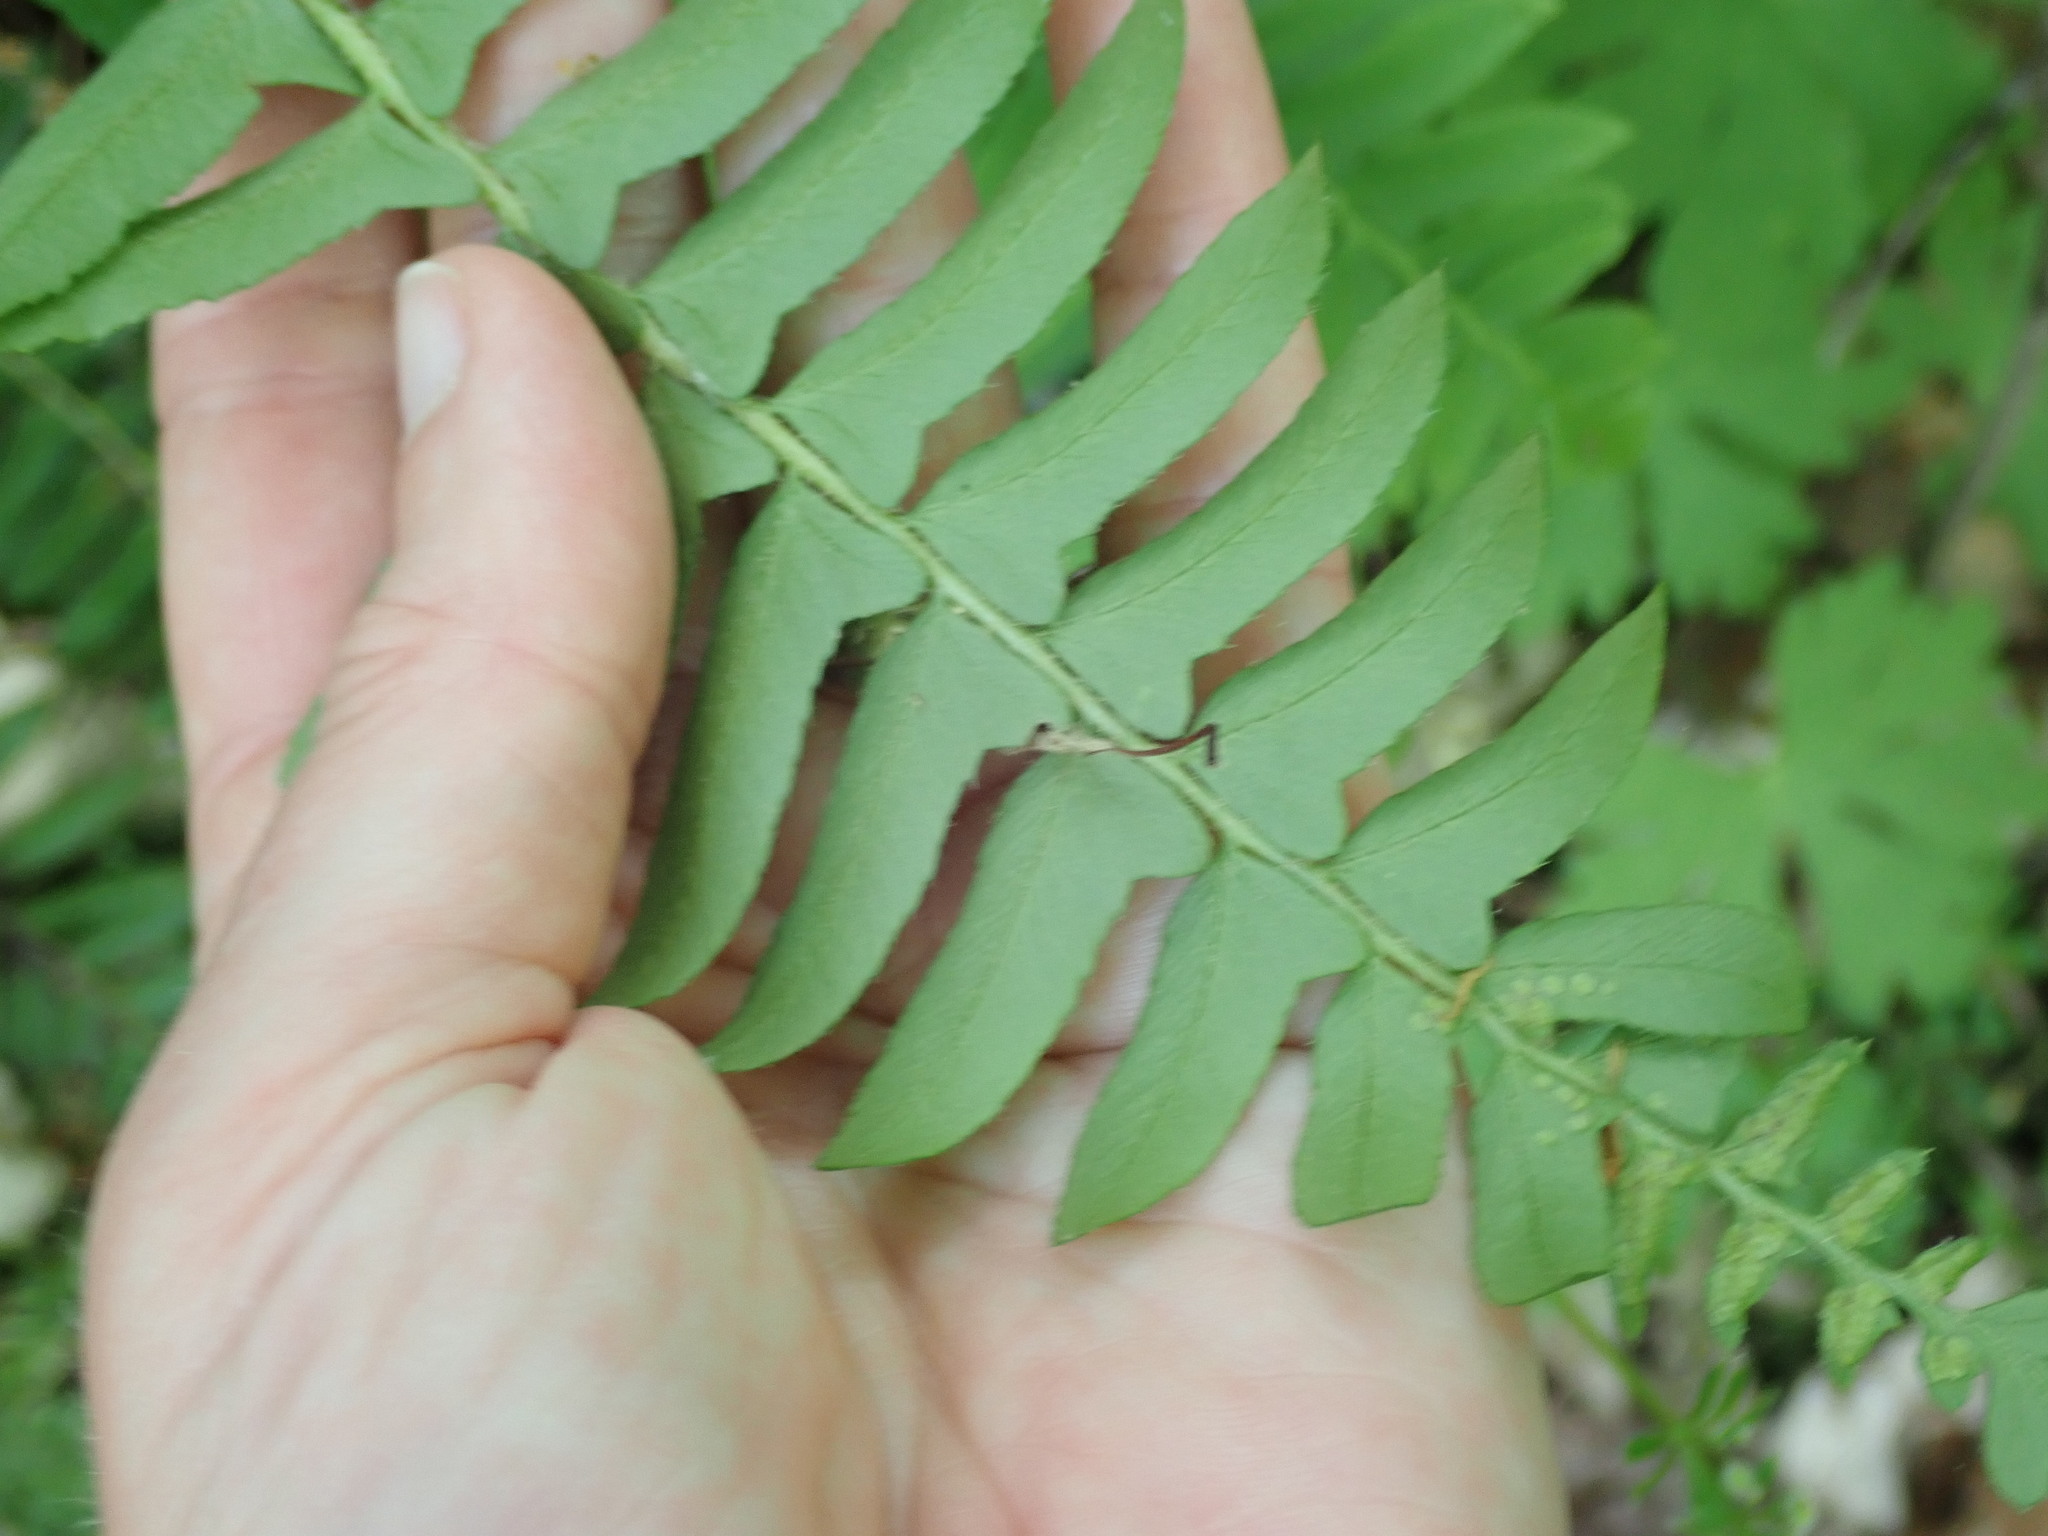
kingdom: Plantae
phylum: Tracheophyta
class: Polypodiopsida
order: Polypodiales
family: Dryopteridaceae
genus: Polystichum
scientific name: Polystichum acrostichoides
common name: Christmas fern
